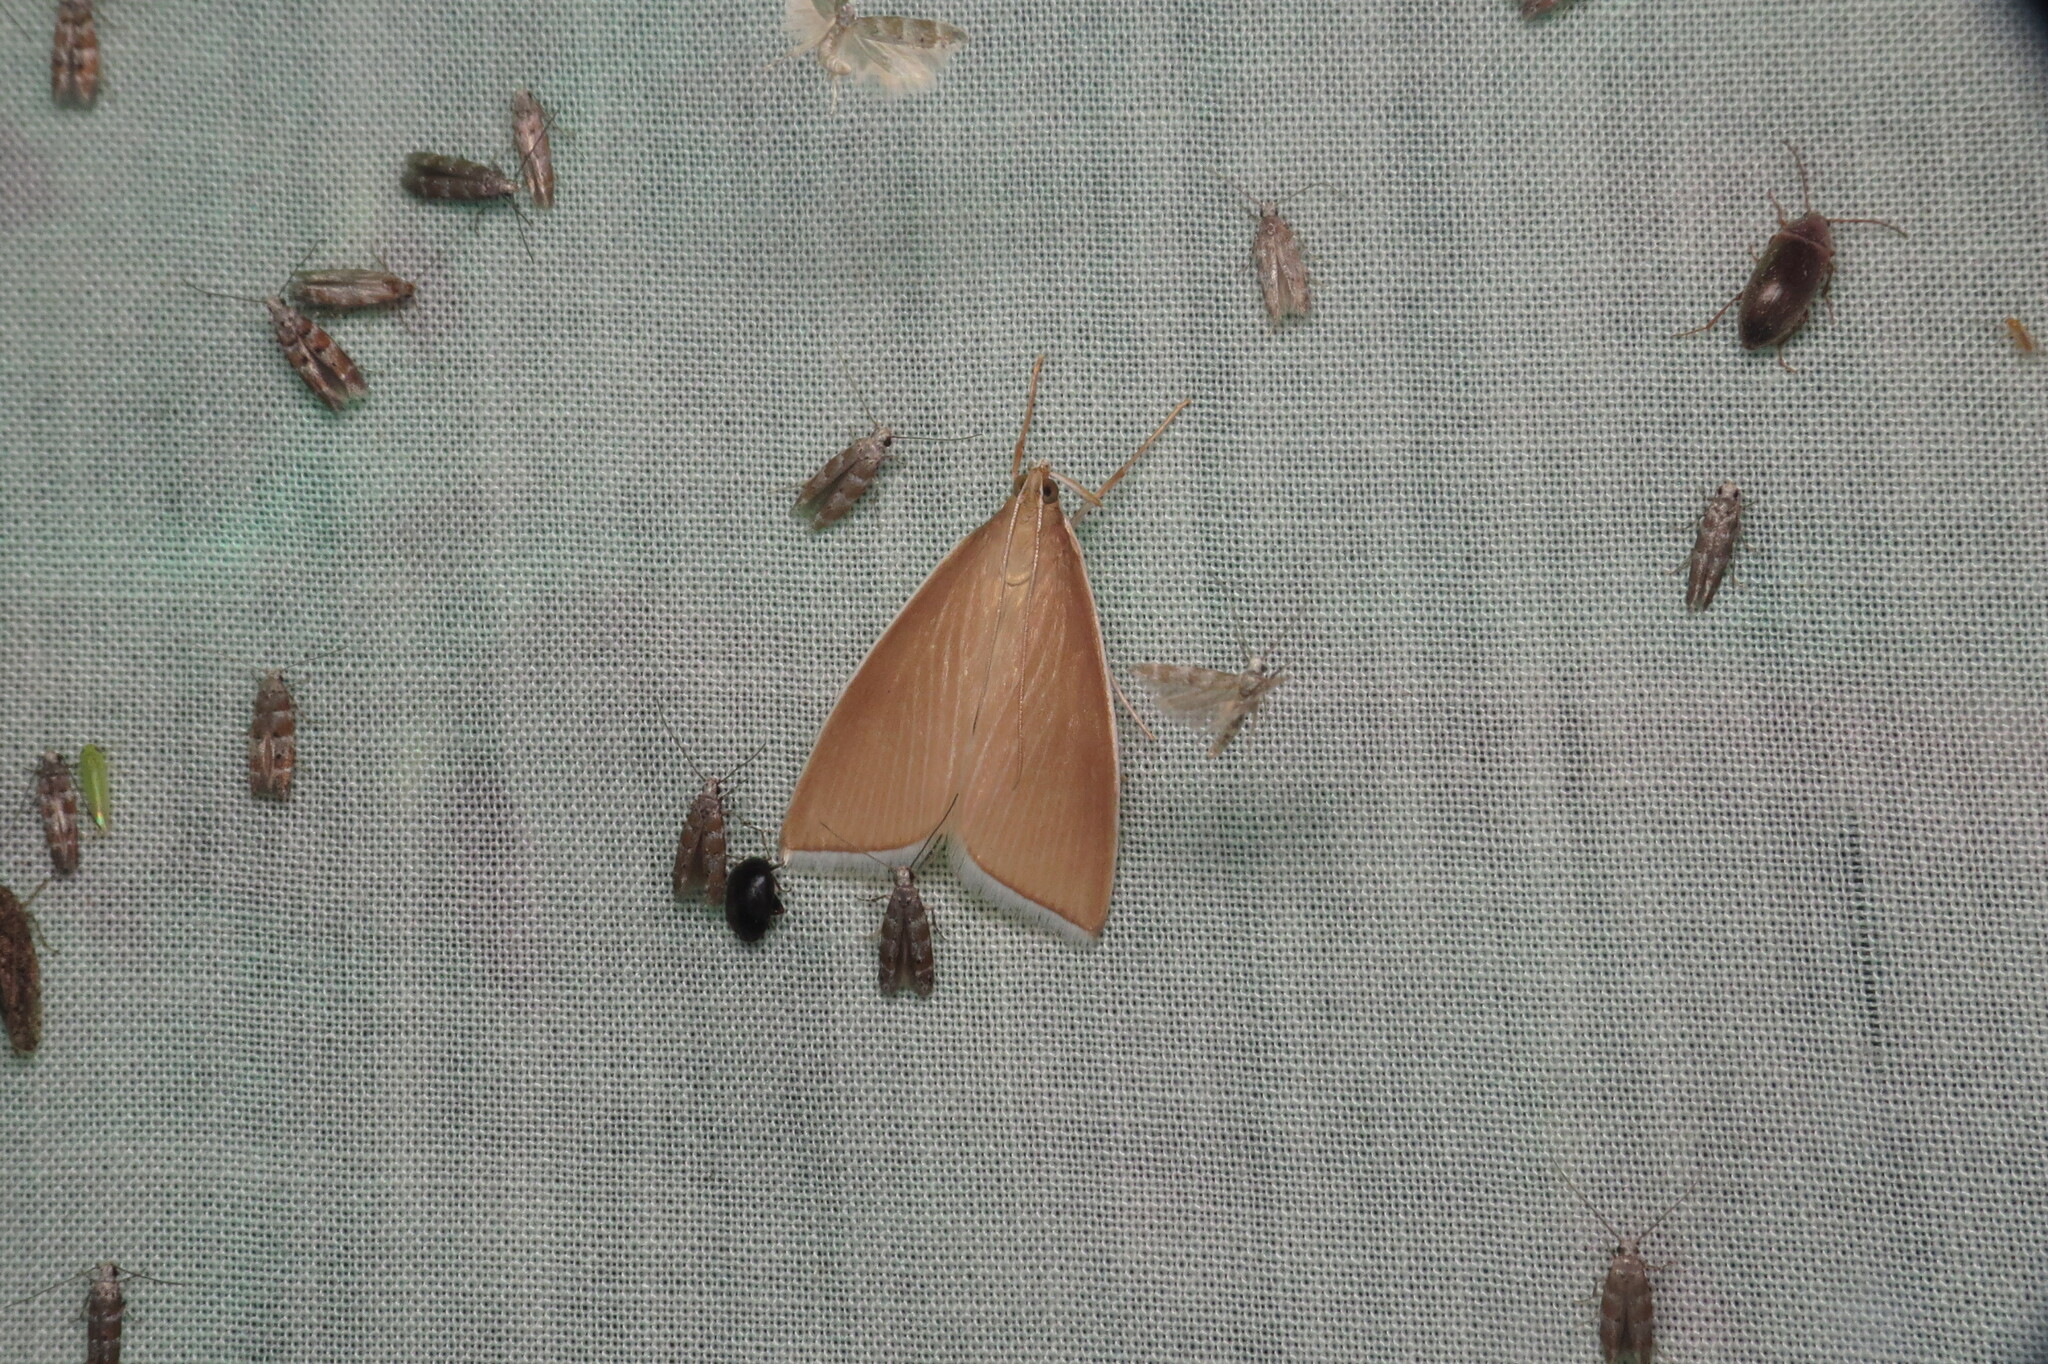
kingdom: Animalia
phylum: Arthropoda
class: Insecta
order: Lepidoptera
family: Crambidae
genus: Calamochrous
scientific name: Calamochrous Sclerocona acutella
